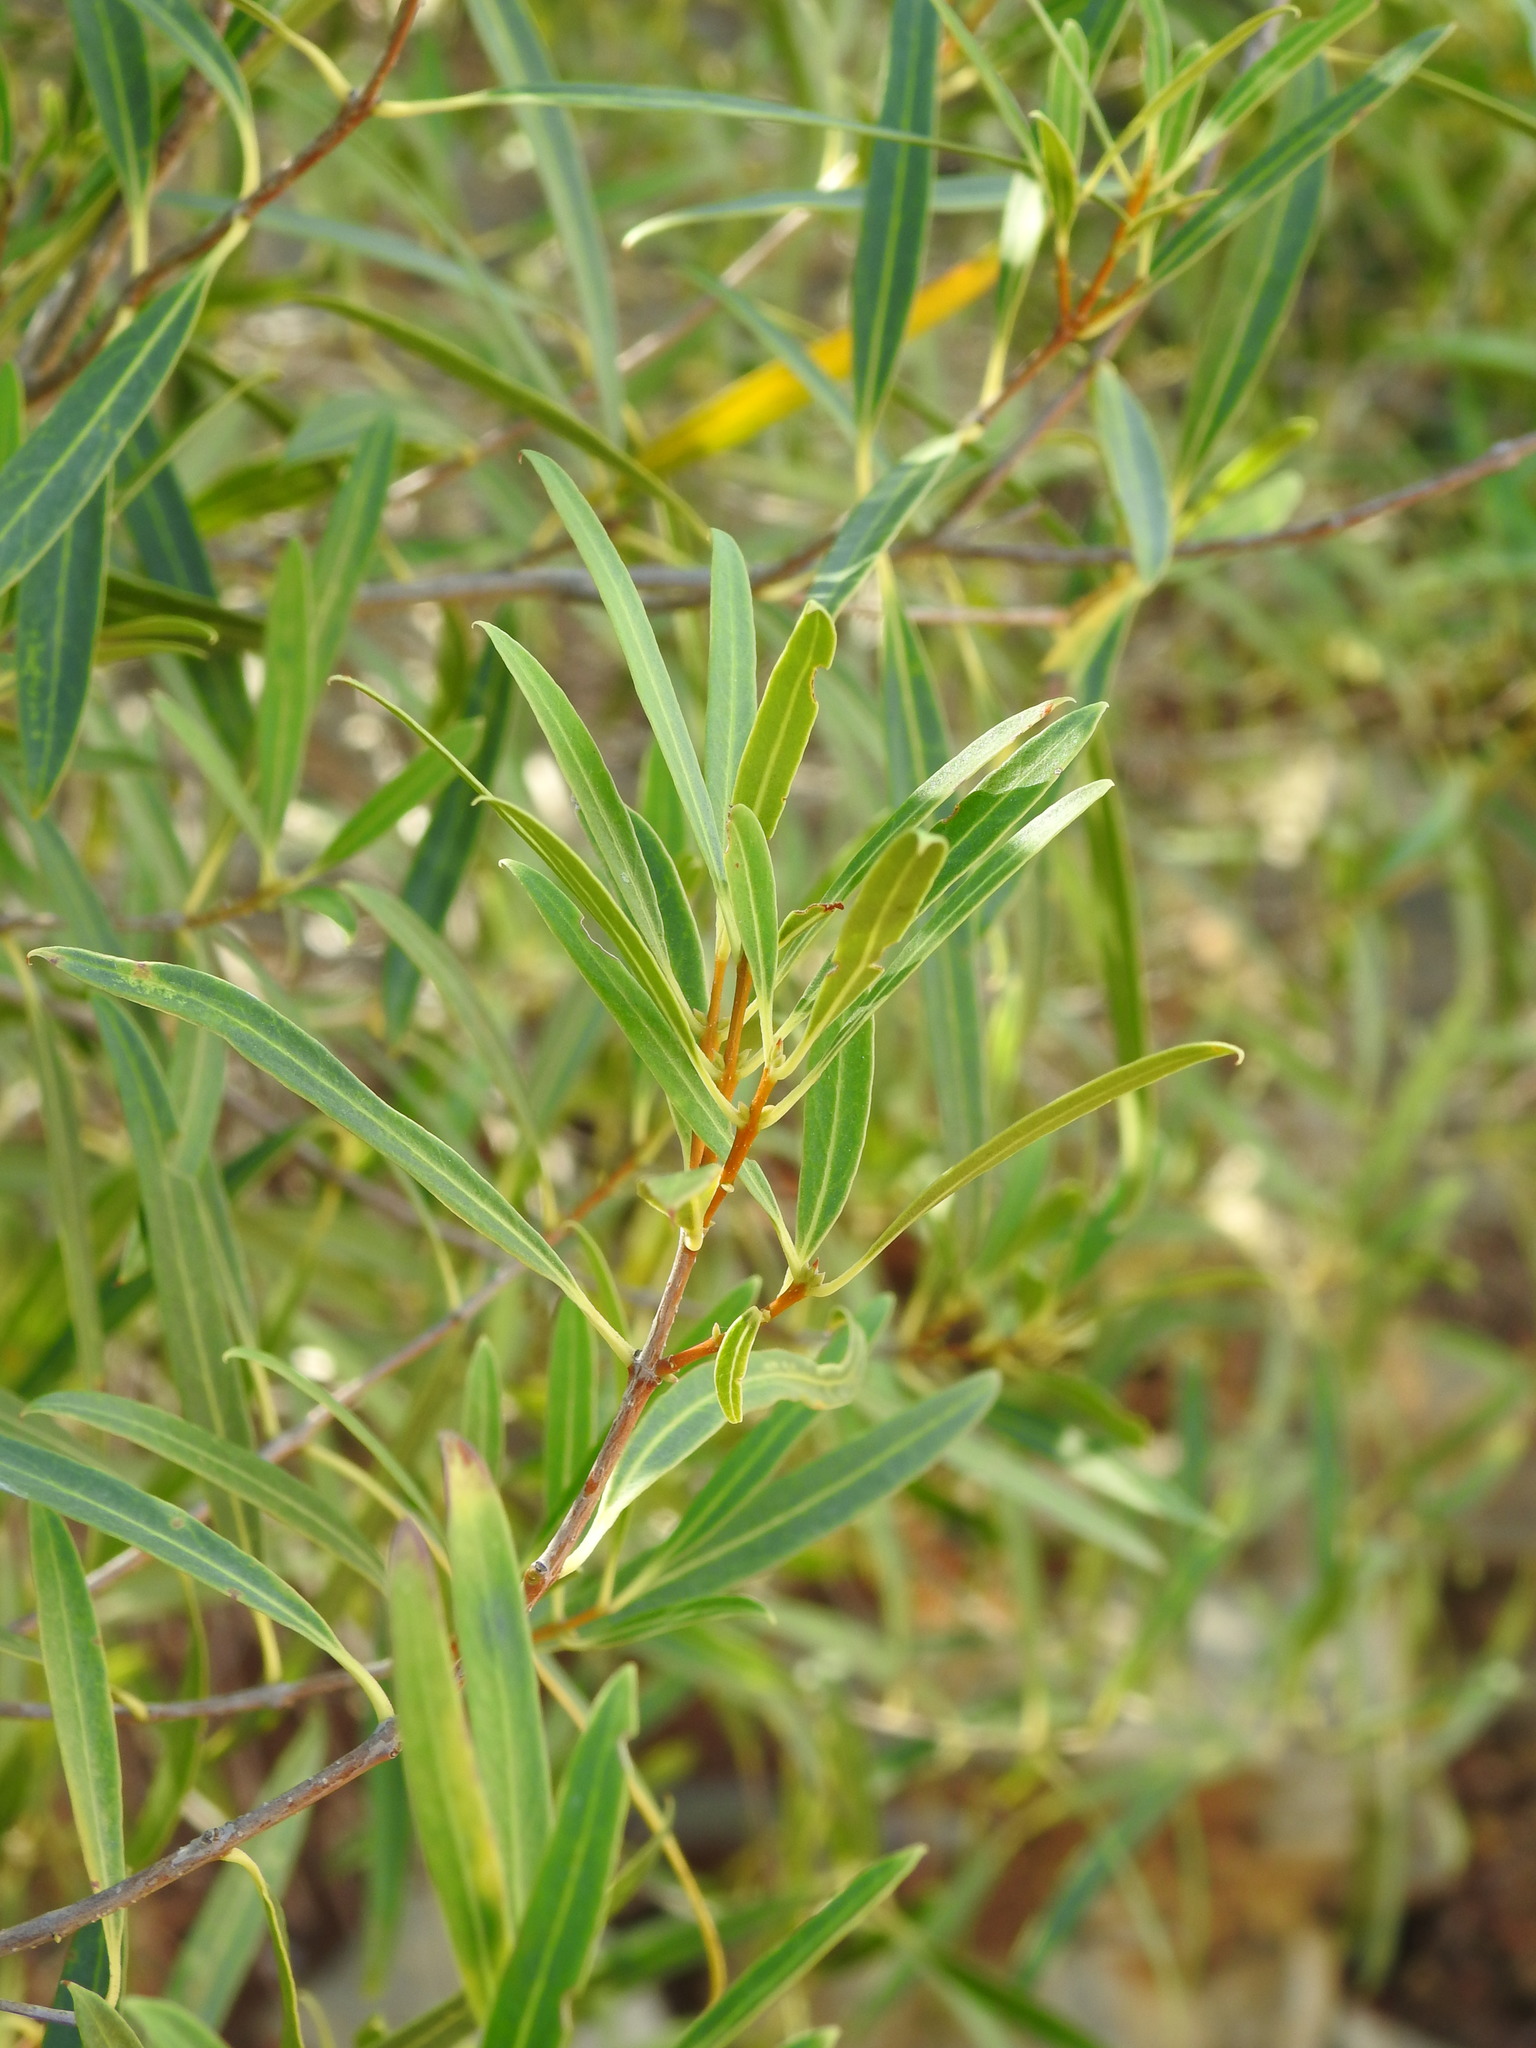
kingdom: Plantae
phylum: Tracheophyta
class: Magnoliopsida
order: Lamiales
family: Oleaceae
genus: Phillyrea
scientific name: Phillyrea angustifolia
